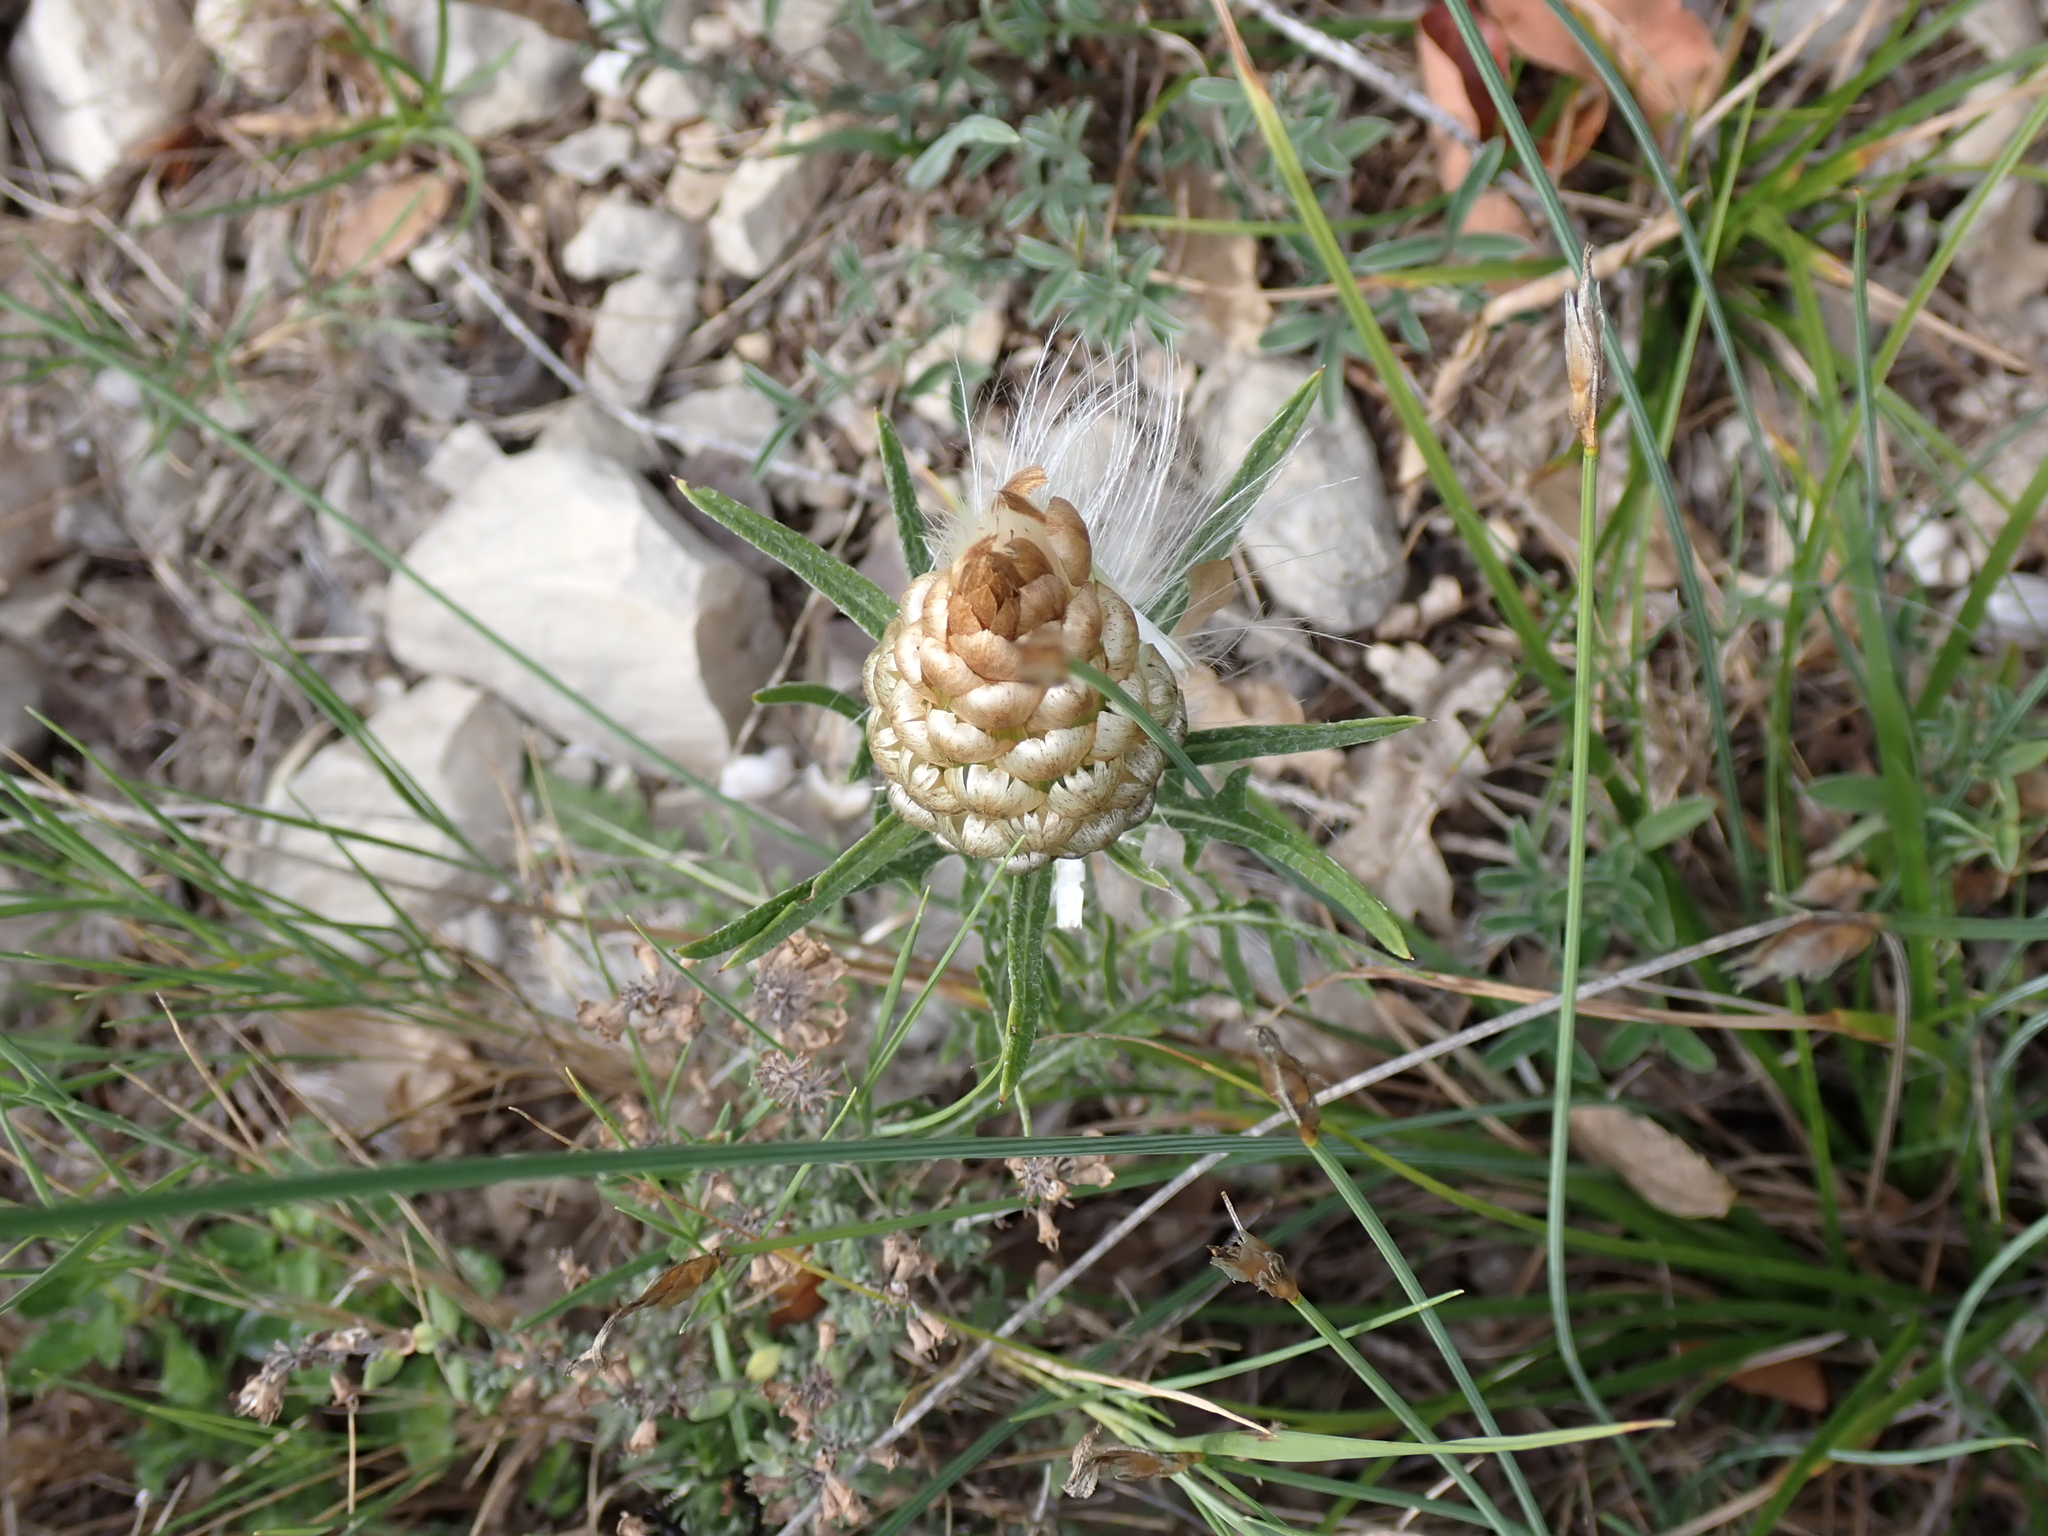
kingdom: Plantae
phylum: Tracheophyta
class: Magnoliopsida
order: Asterales
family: Asteraceae
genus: Leuzea
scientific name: Leuzea conifera
